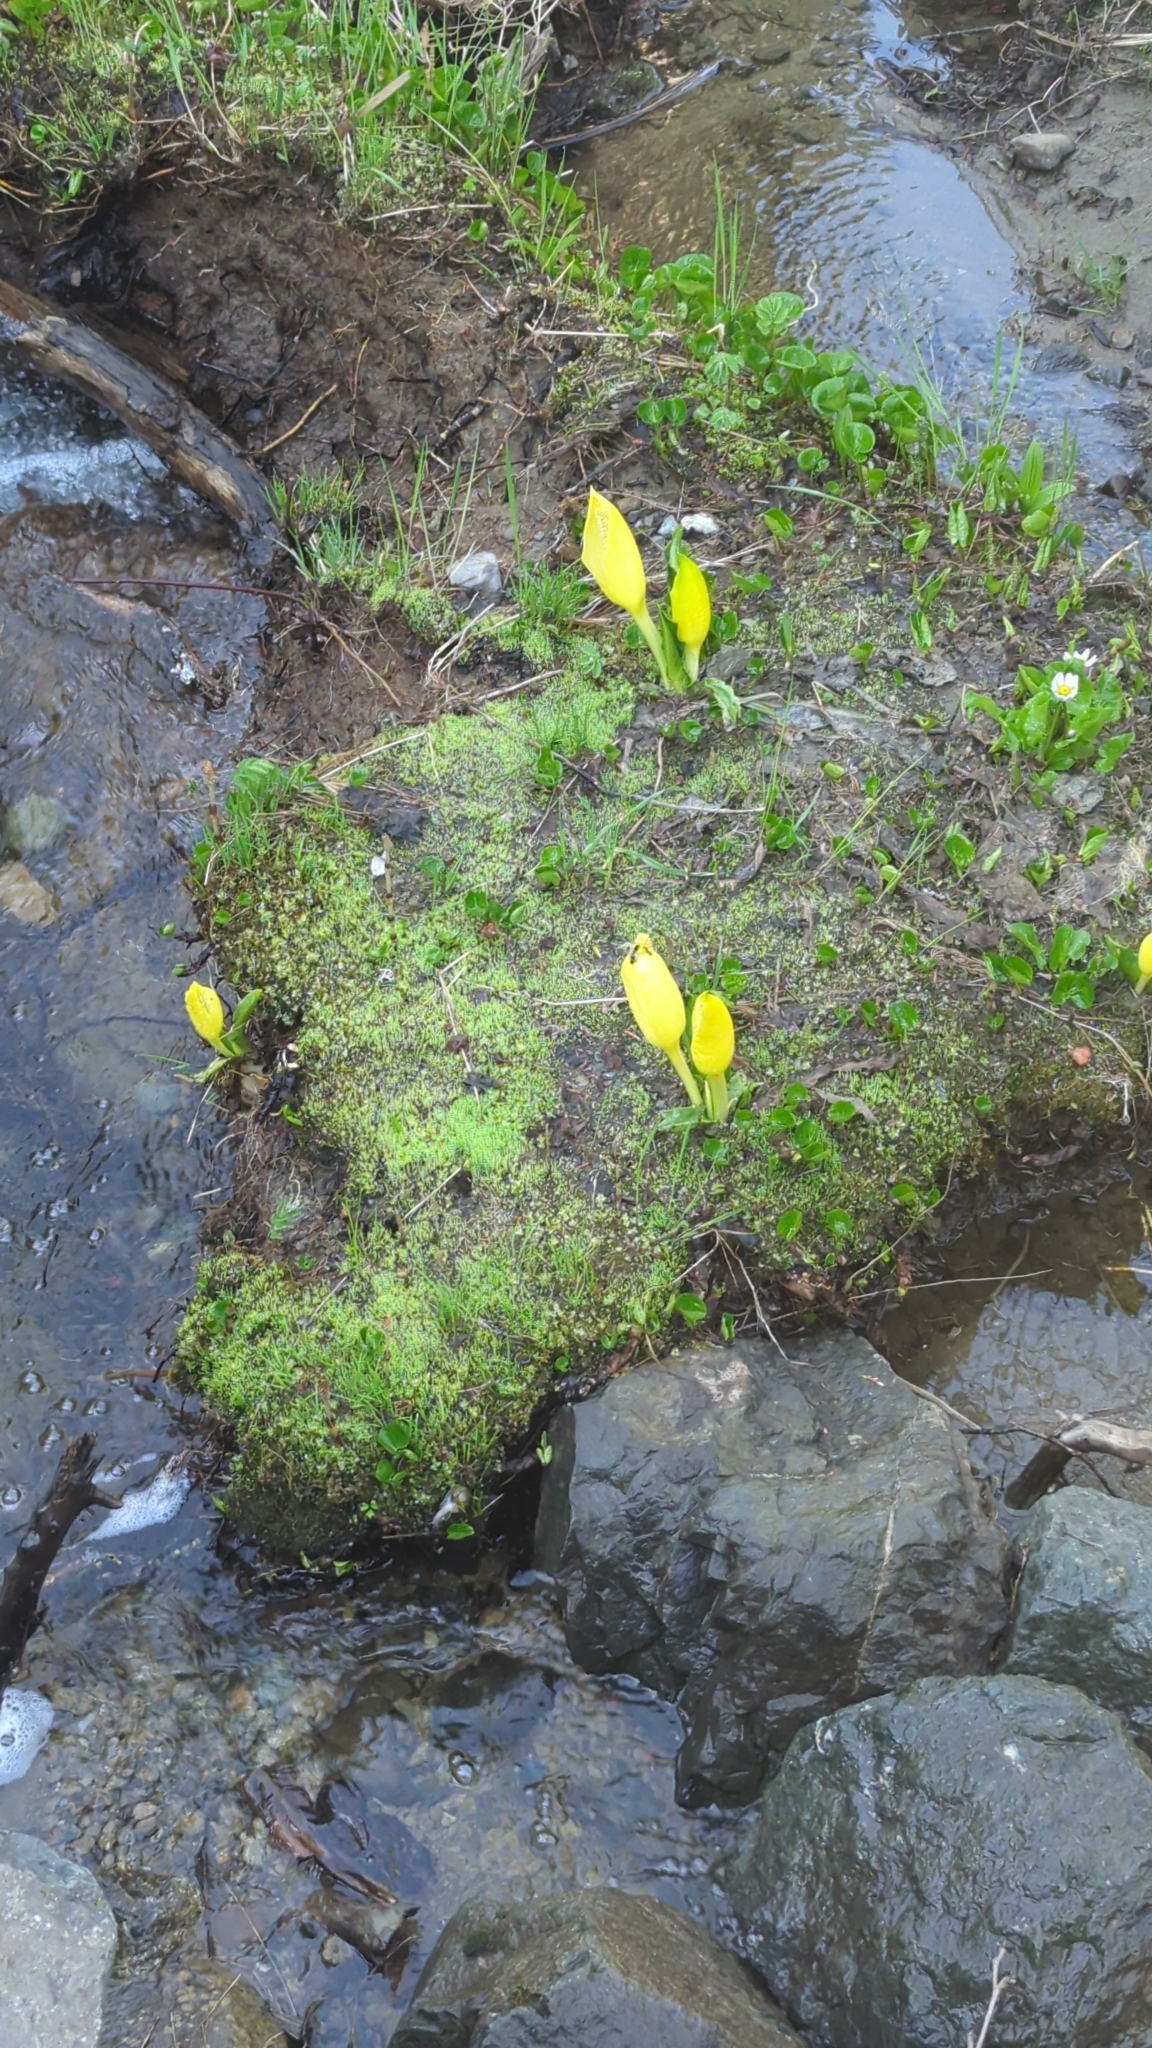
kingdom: Plantae
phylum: Tracheophyta
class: Liliopsida
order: Alismatales
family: Araceae
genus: Lysichiton
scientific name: Lysichiton americanus
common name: American skunk cabbage
